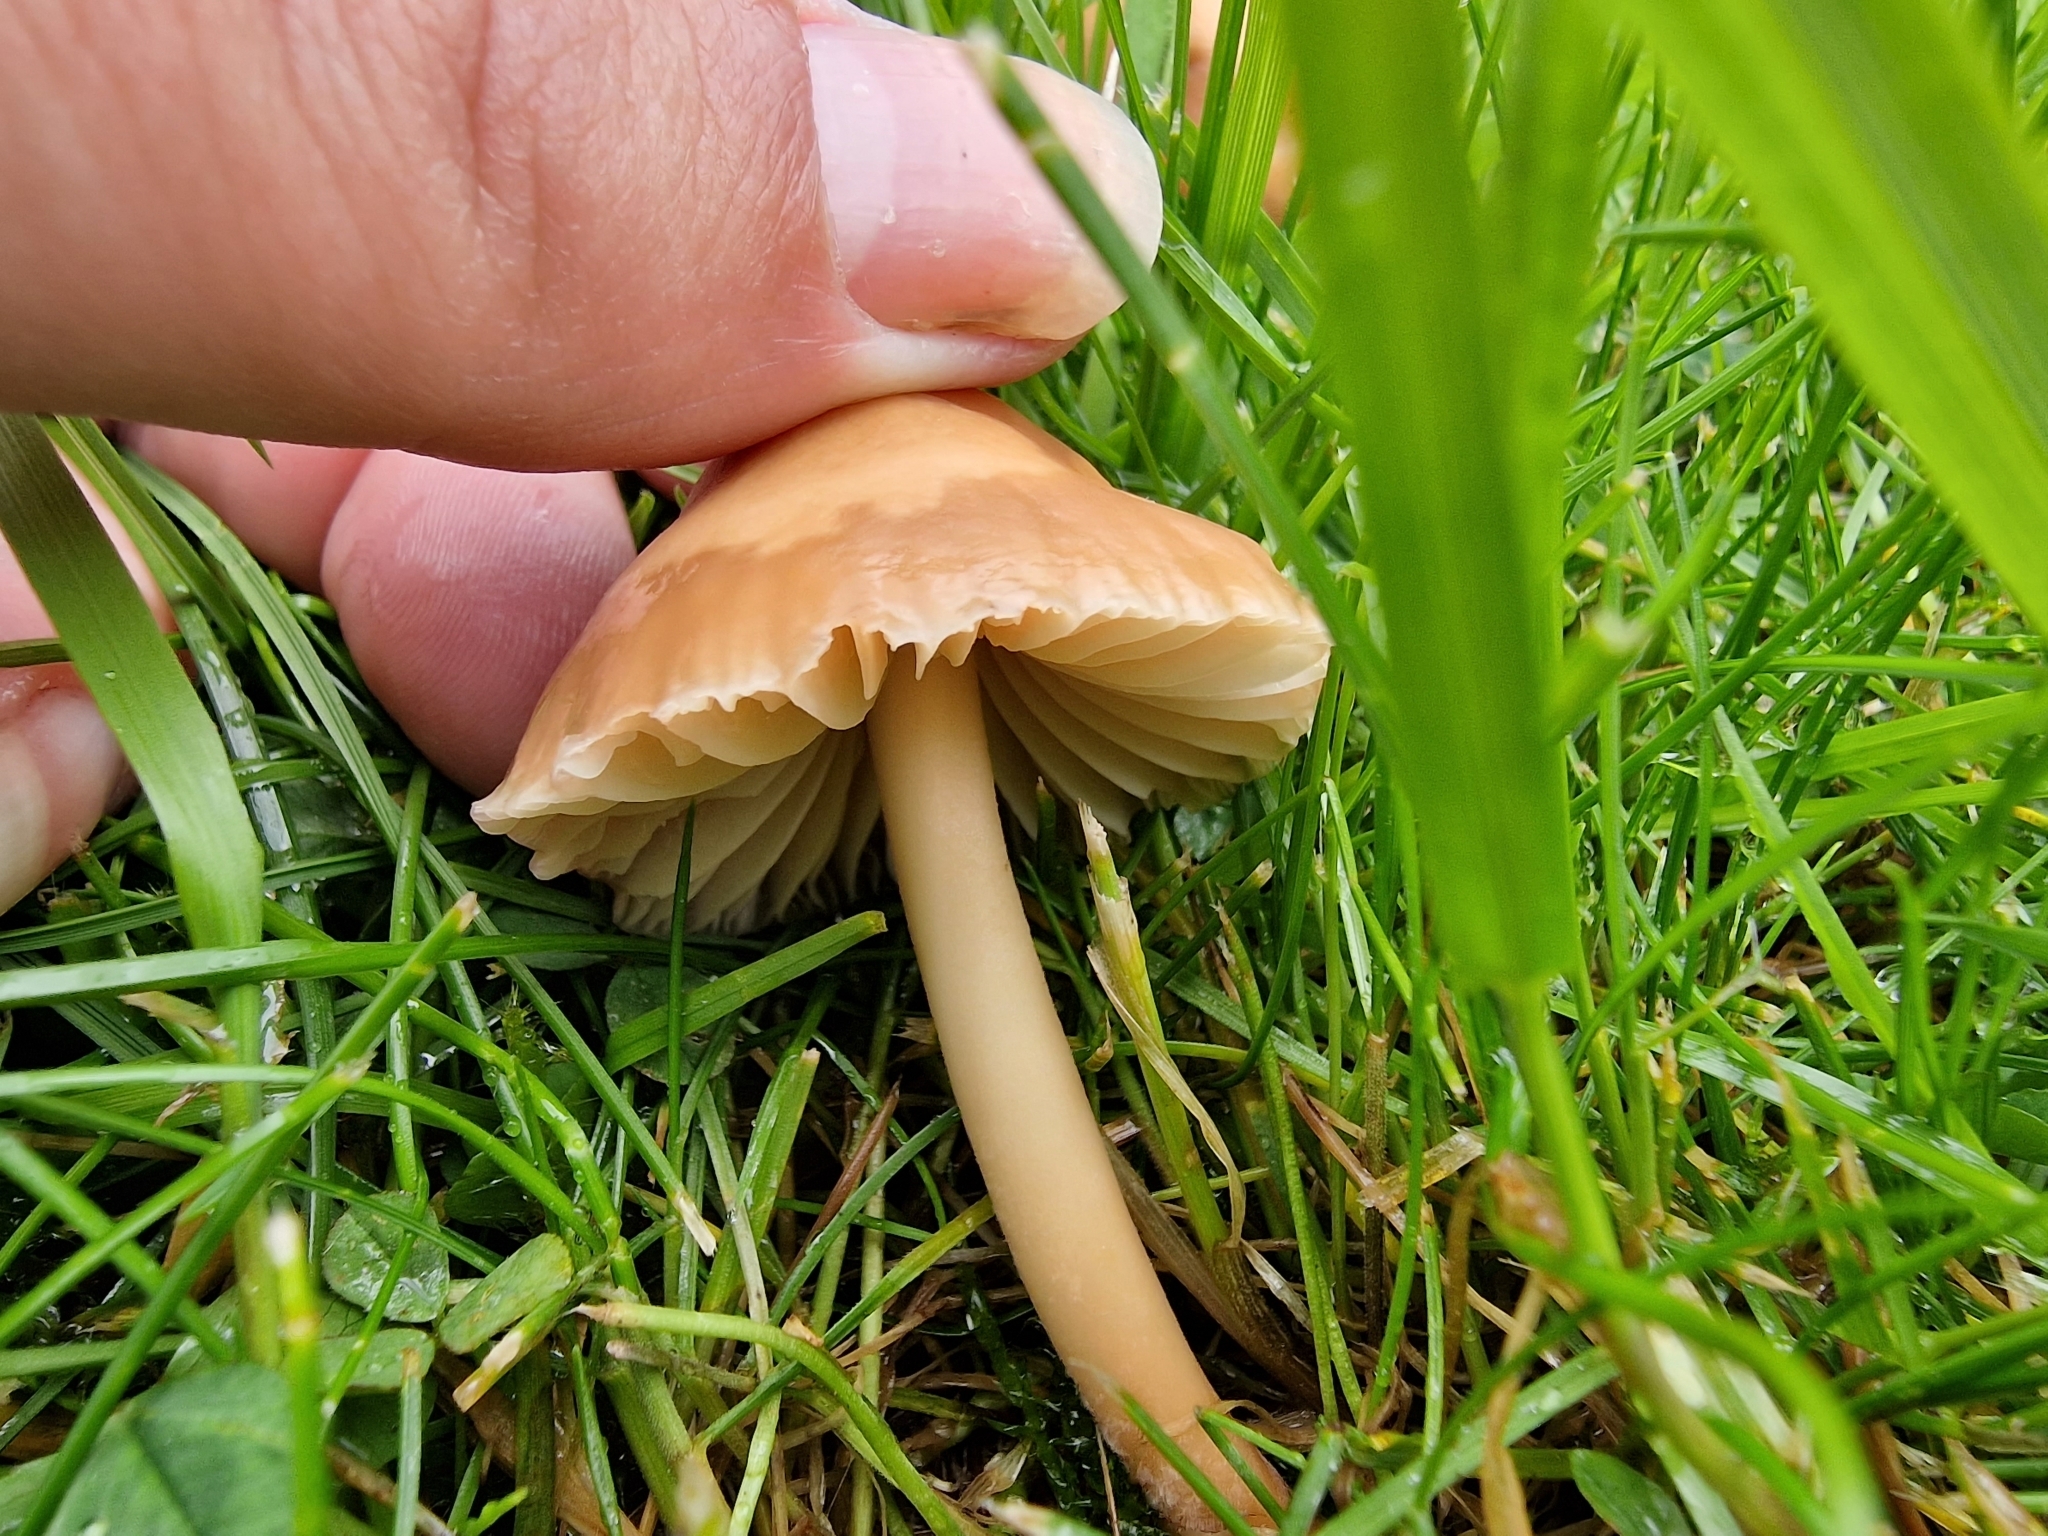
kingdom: Fungi
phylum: Basidiomycota
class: Agaricomycetes
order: Agaricales
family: Marasmiaceae
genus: Marasmius
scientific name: Marasmius oreades
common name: Fairy ring champignon
